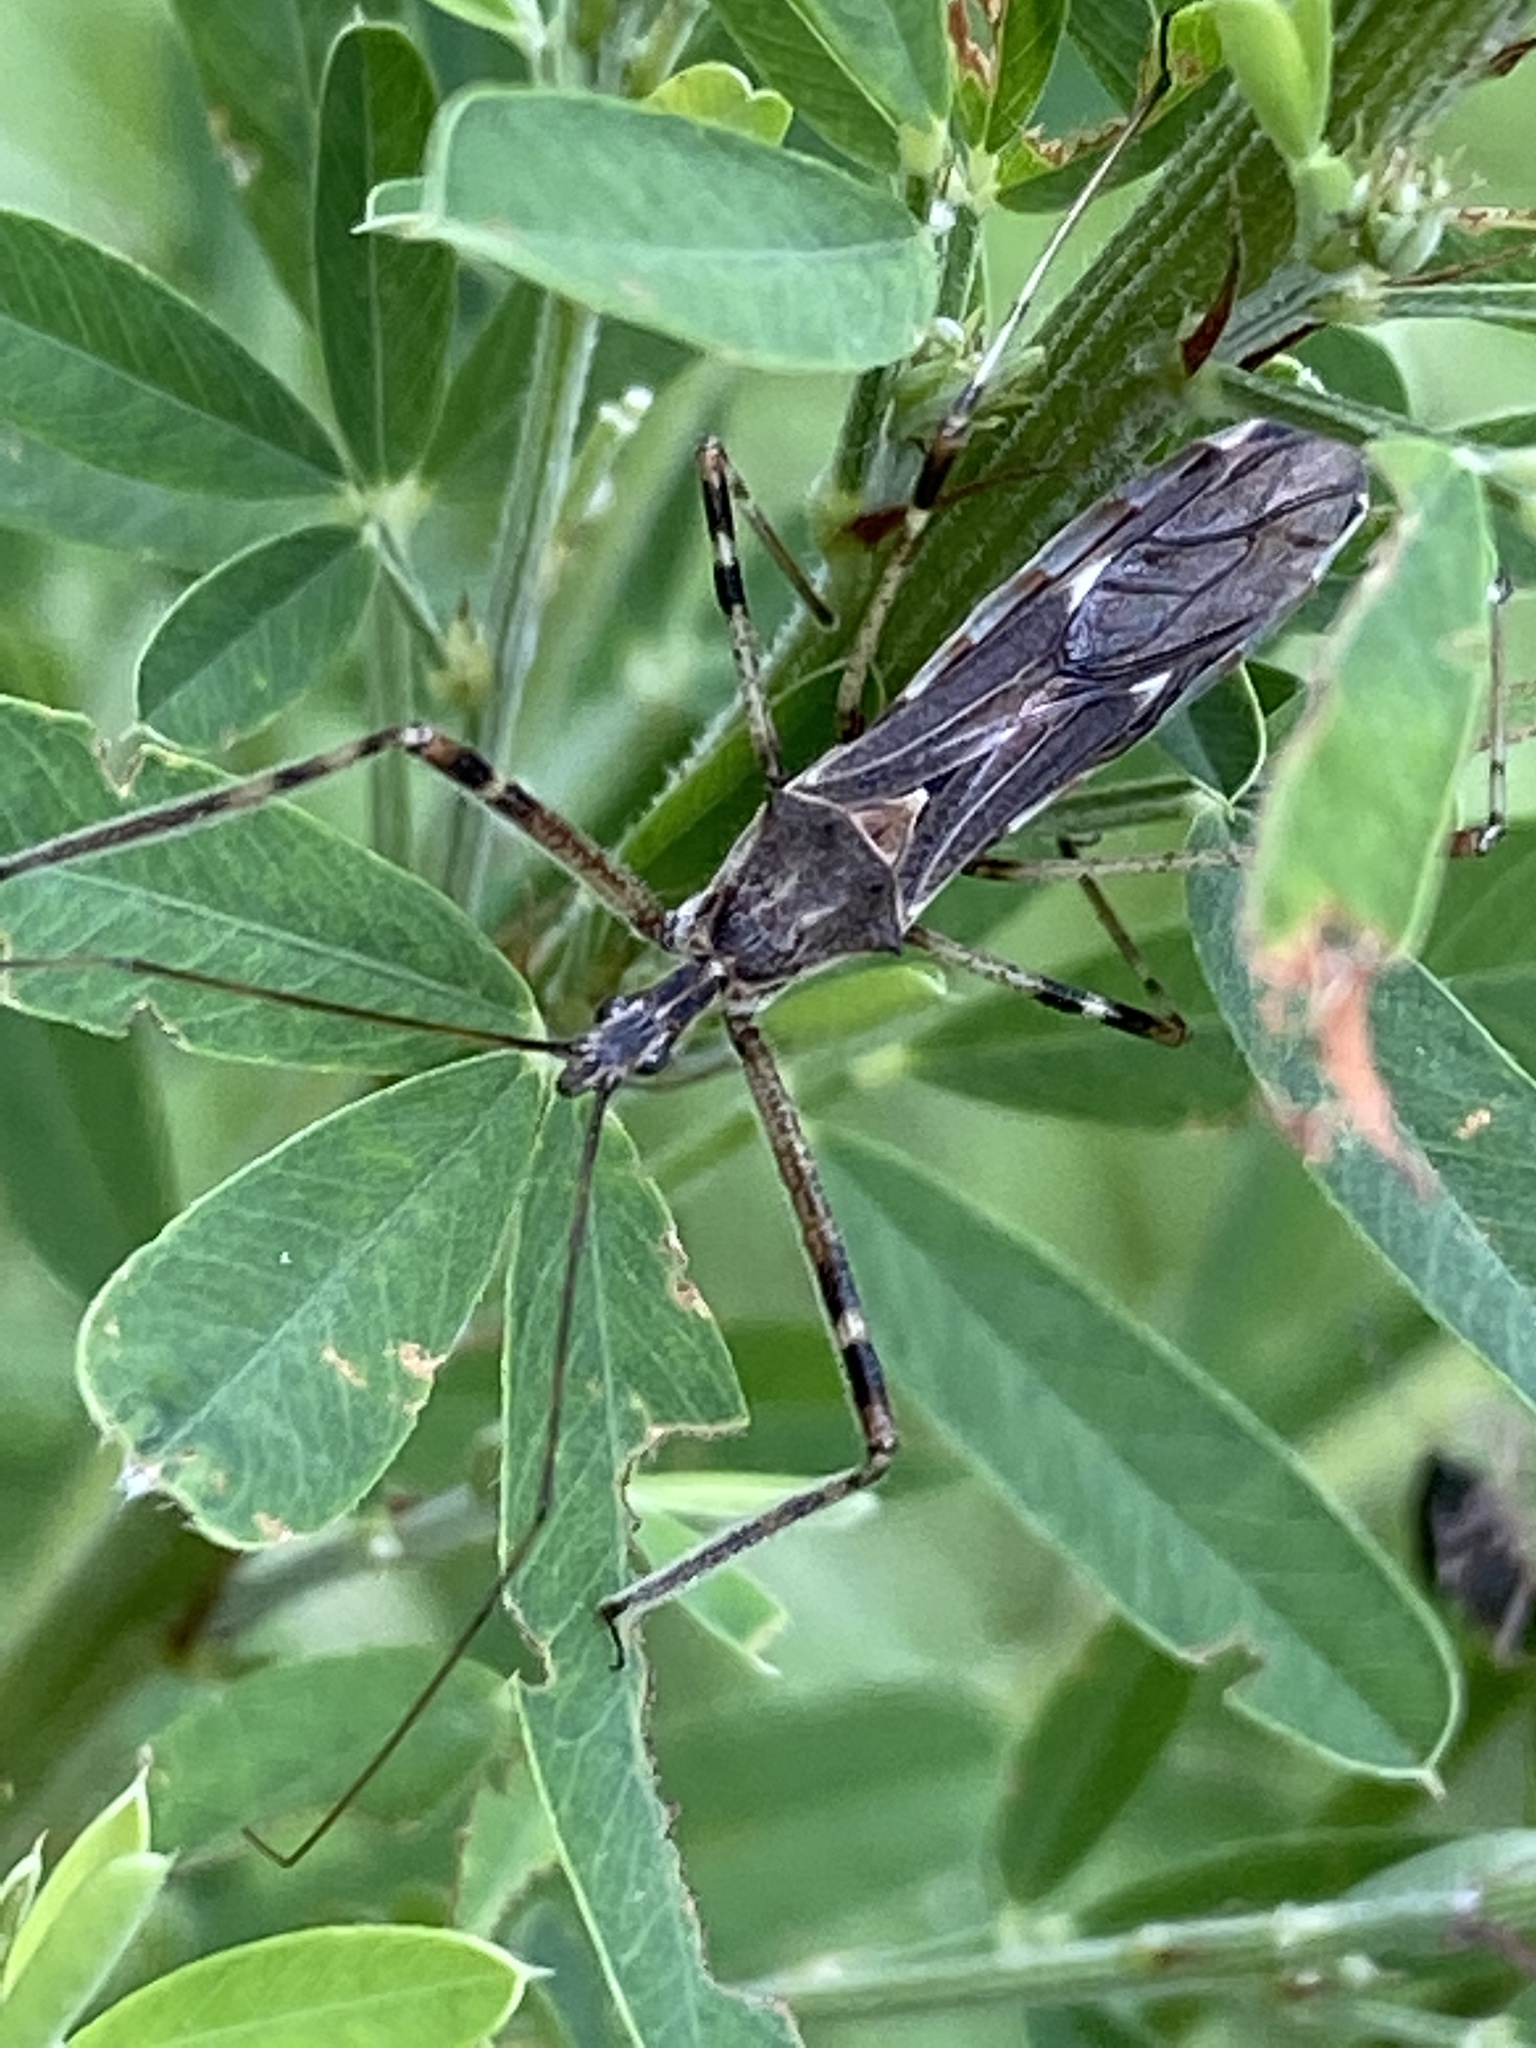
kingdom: Animalia
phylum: Arthropoda
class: Insecta
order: Hemiptera
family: Reduviidae
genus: Zelus
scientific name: Zelus tetracanthus
